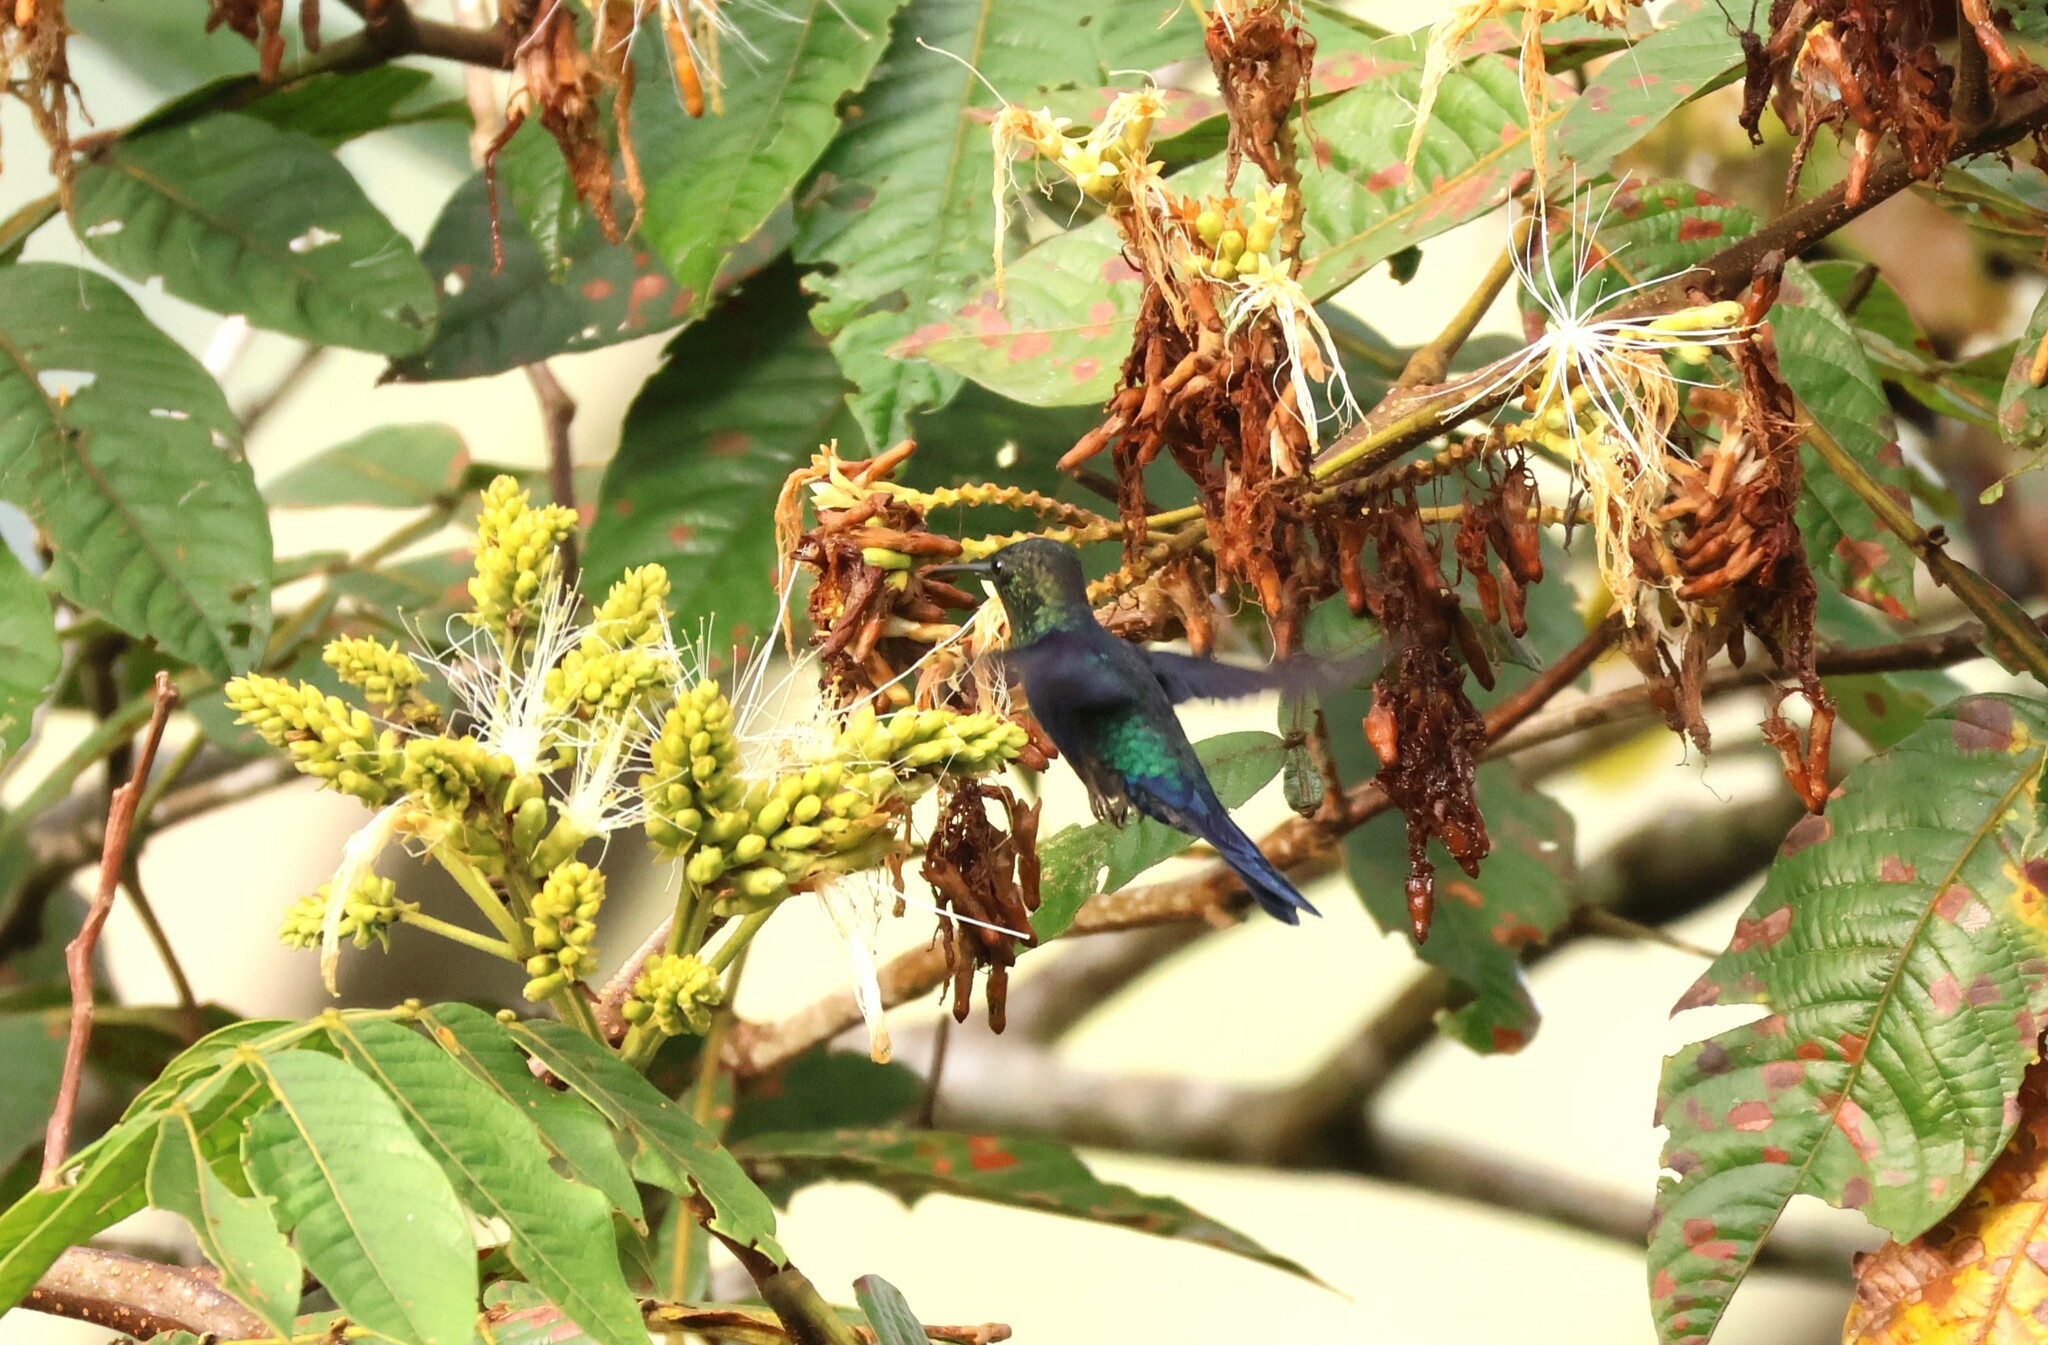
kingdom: Animalia
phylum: Chordata
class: Aves
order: Apodiformes
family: Trochilidae
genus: Thalurania
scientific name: Thalurania colombica
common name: Crowned woodnymph
